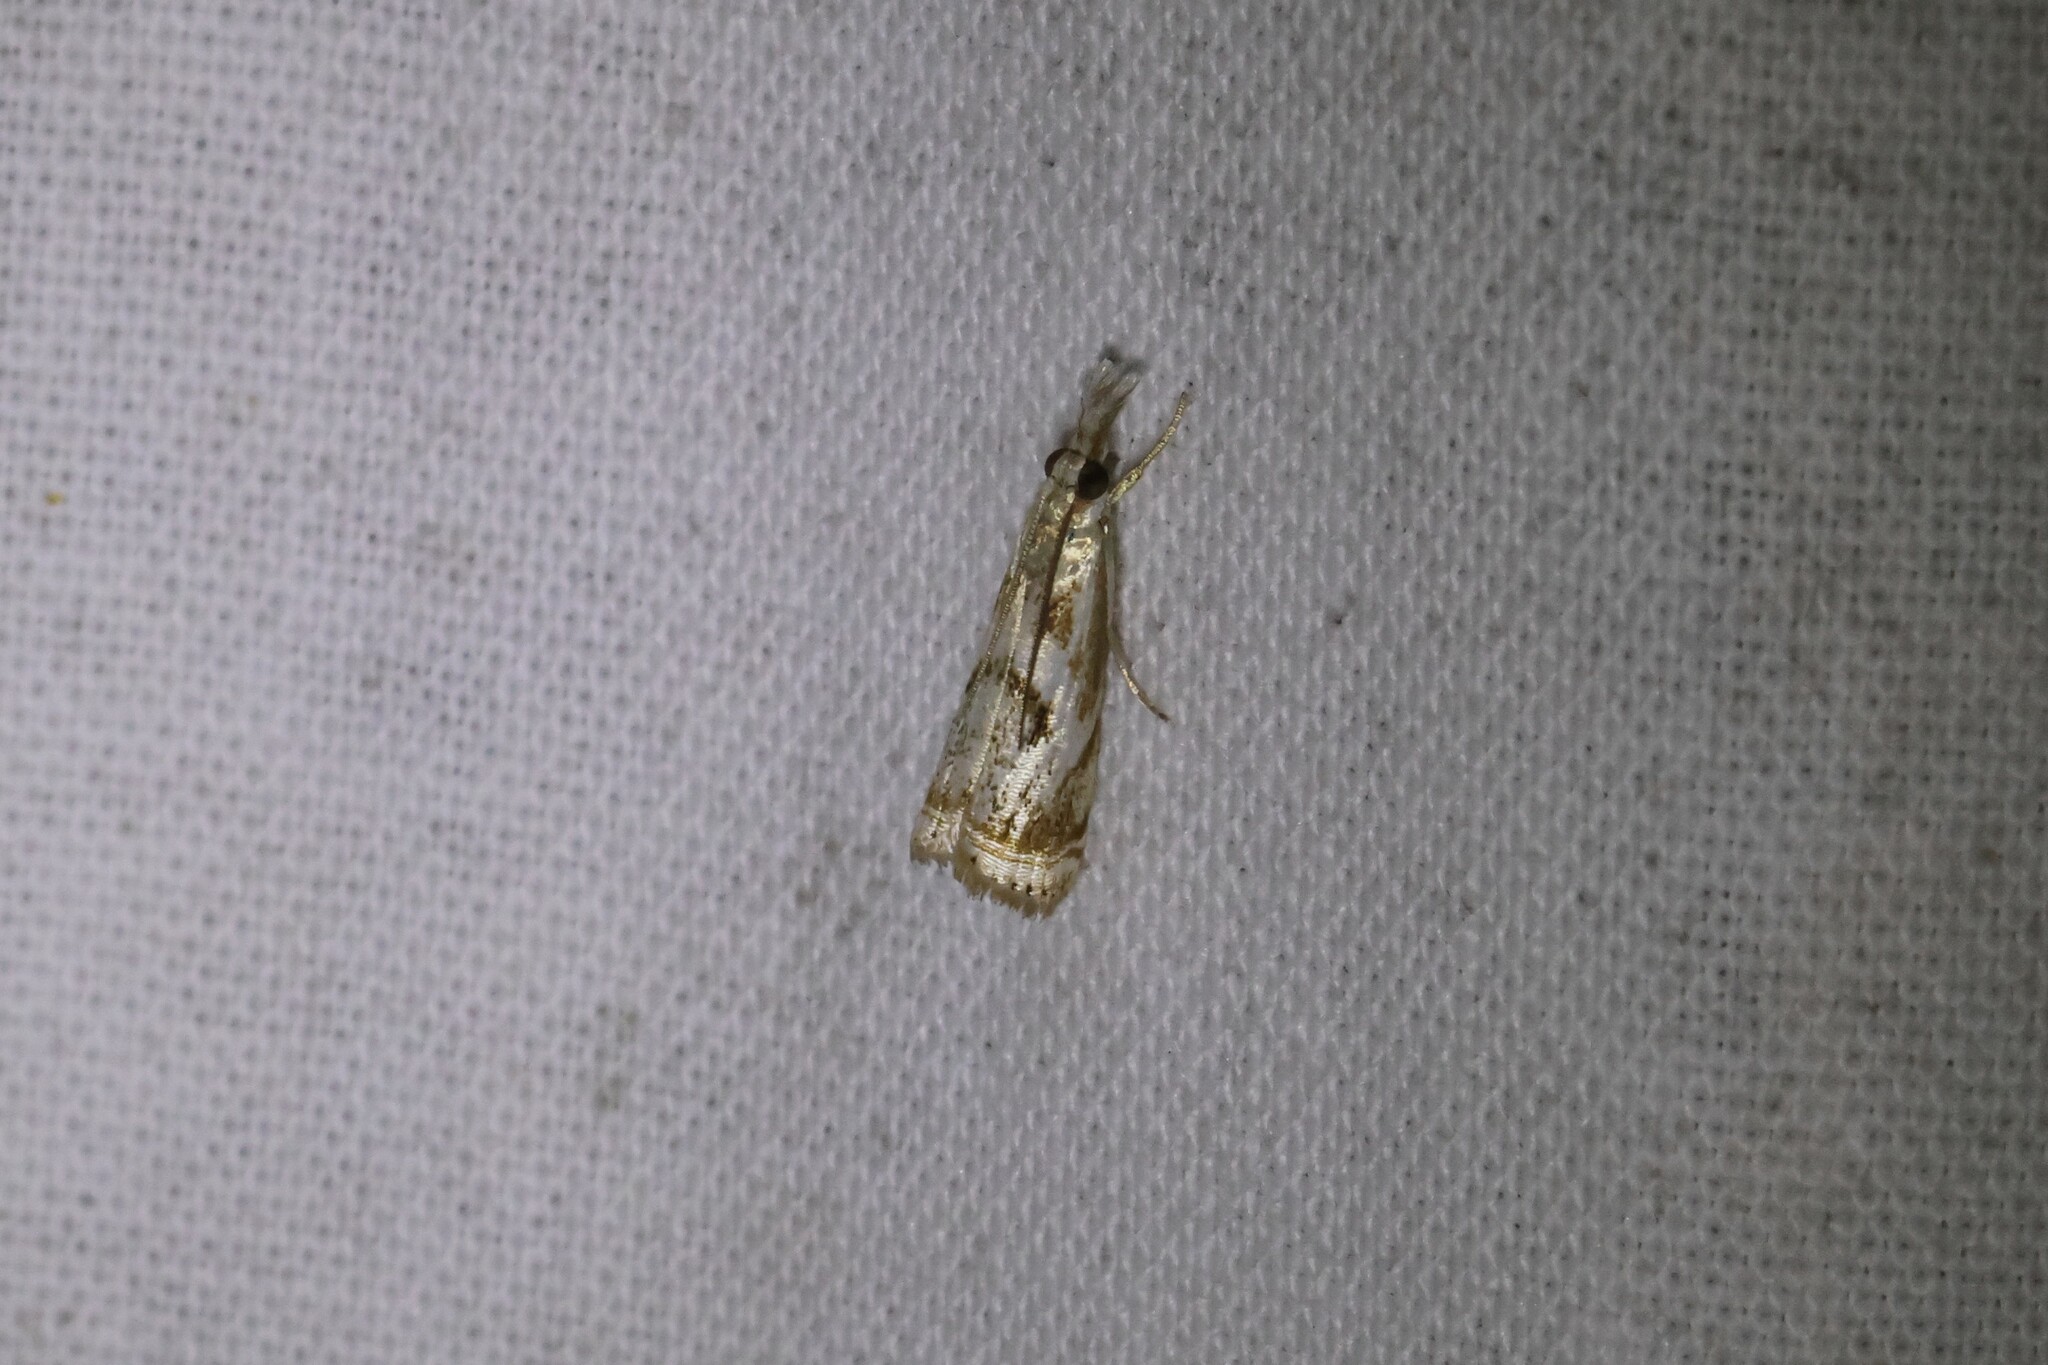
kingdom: Animalia
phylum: Arthropoda
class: Insecta
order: Lepidoptera
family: Crambidae
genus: Microcrambus
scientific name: Microcrambus elegans
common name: Elegant grass-veneer
